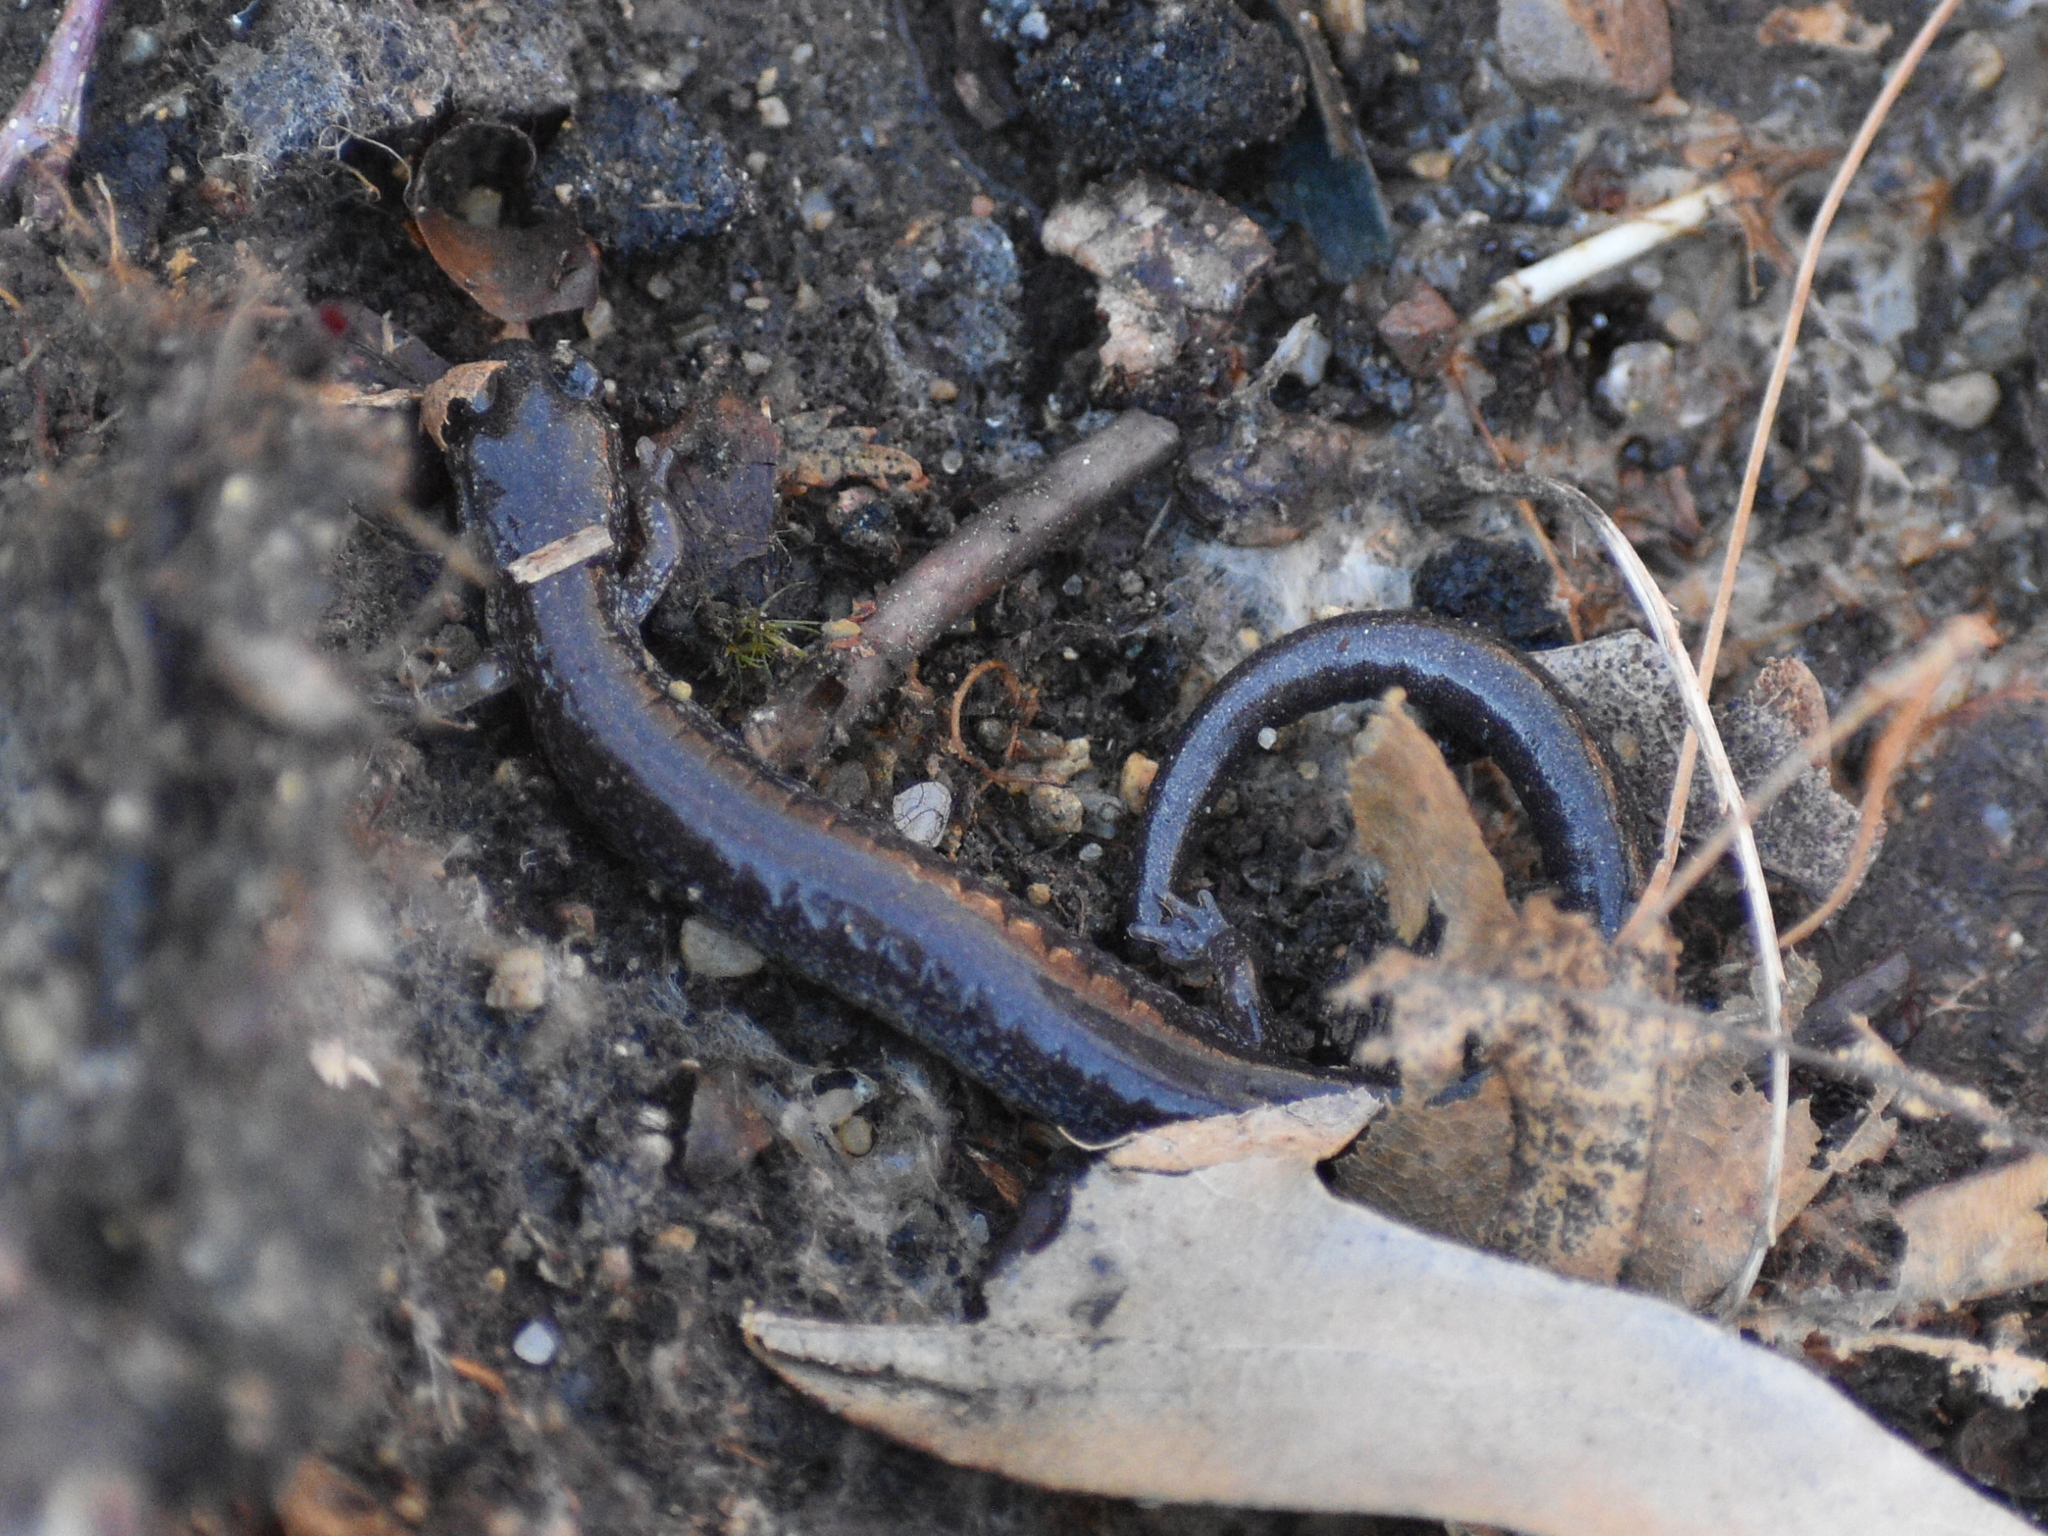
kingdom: Animalia
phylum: Chordata
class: Amphibia
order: Caudata
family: Plethodontidae
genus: Plethodon
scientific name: Plethodon cinereus
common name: Redback salamander
